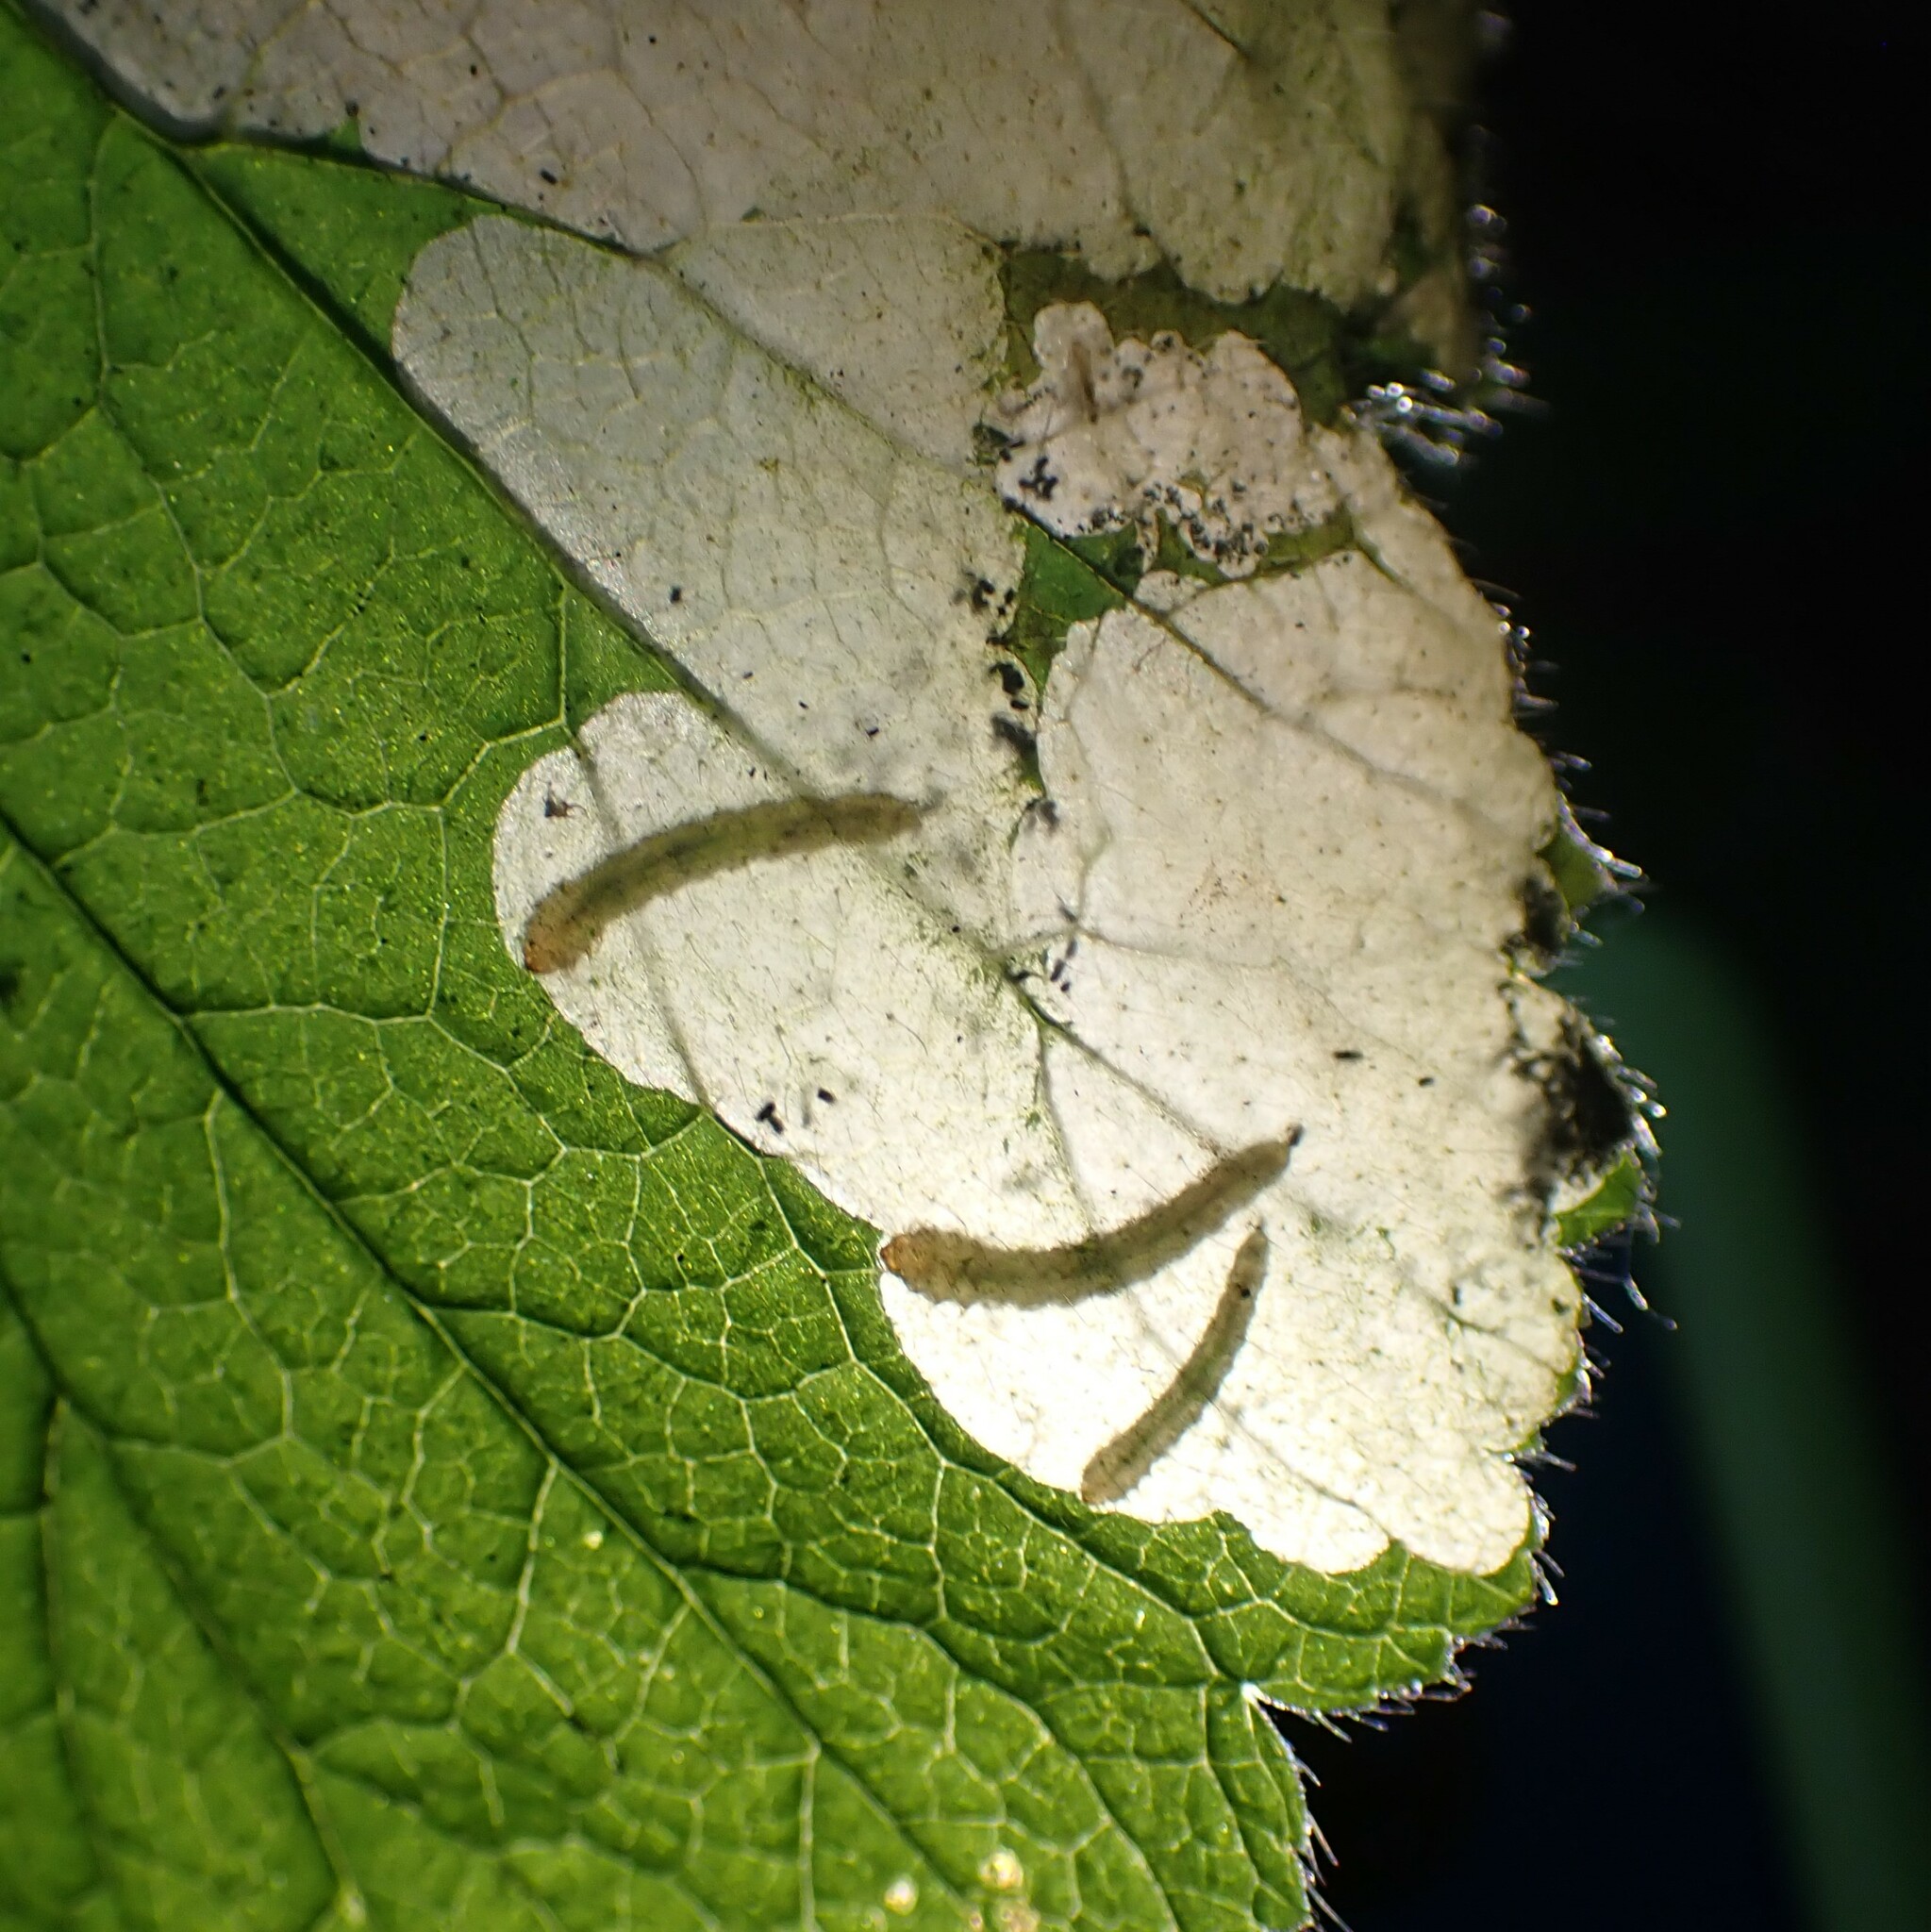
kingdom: Animalia
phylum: Arthropoda
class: Insecta
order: Hymenoptera
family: Tenthredinidae
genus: Metallus
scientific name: Metallus lanceolatus
